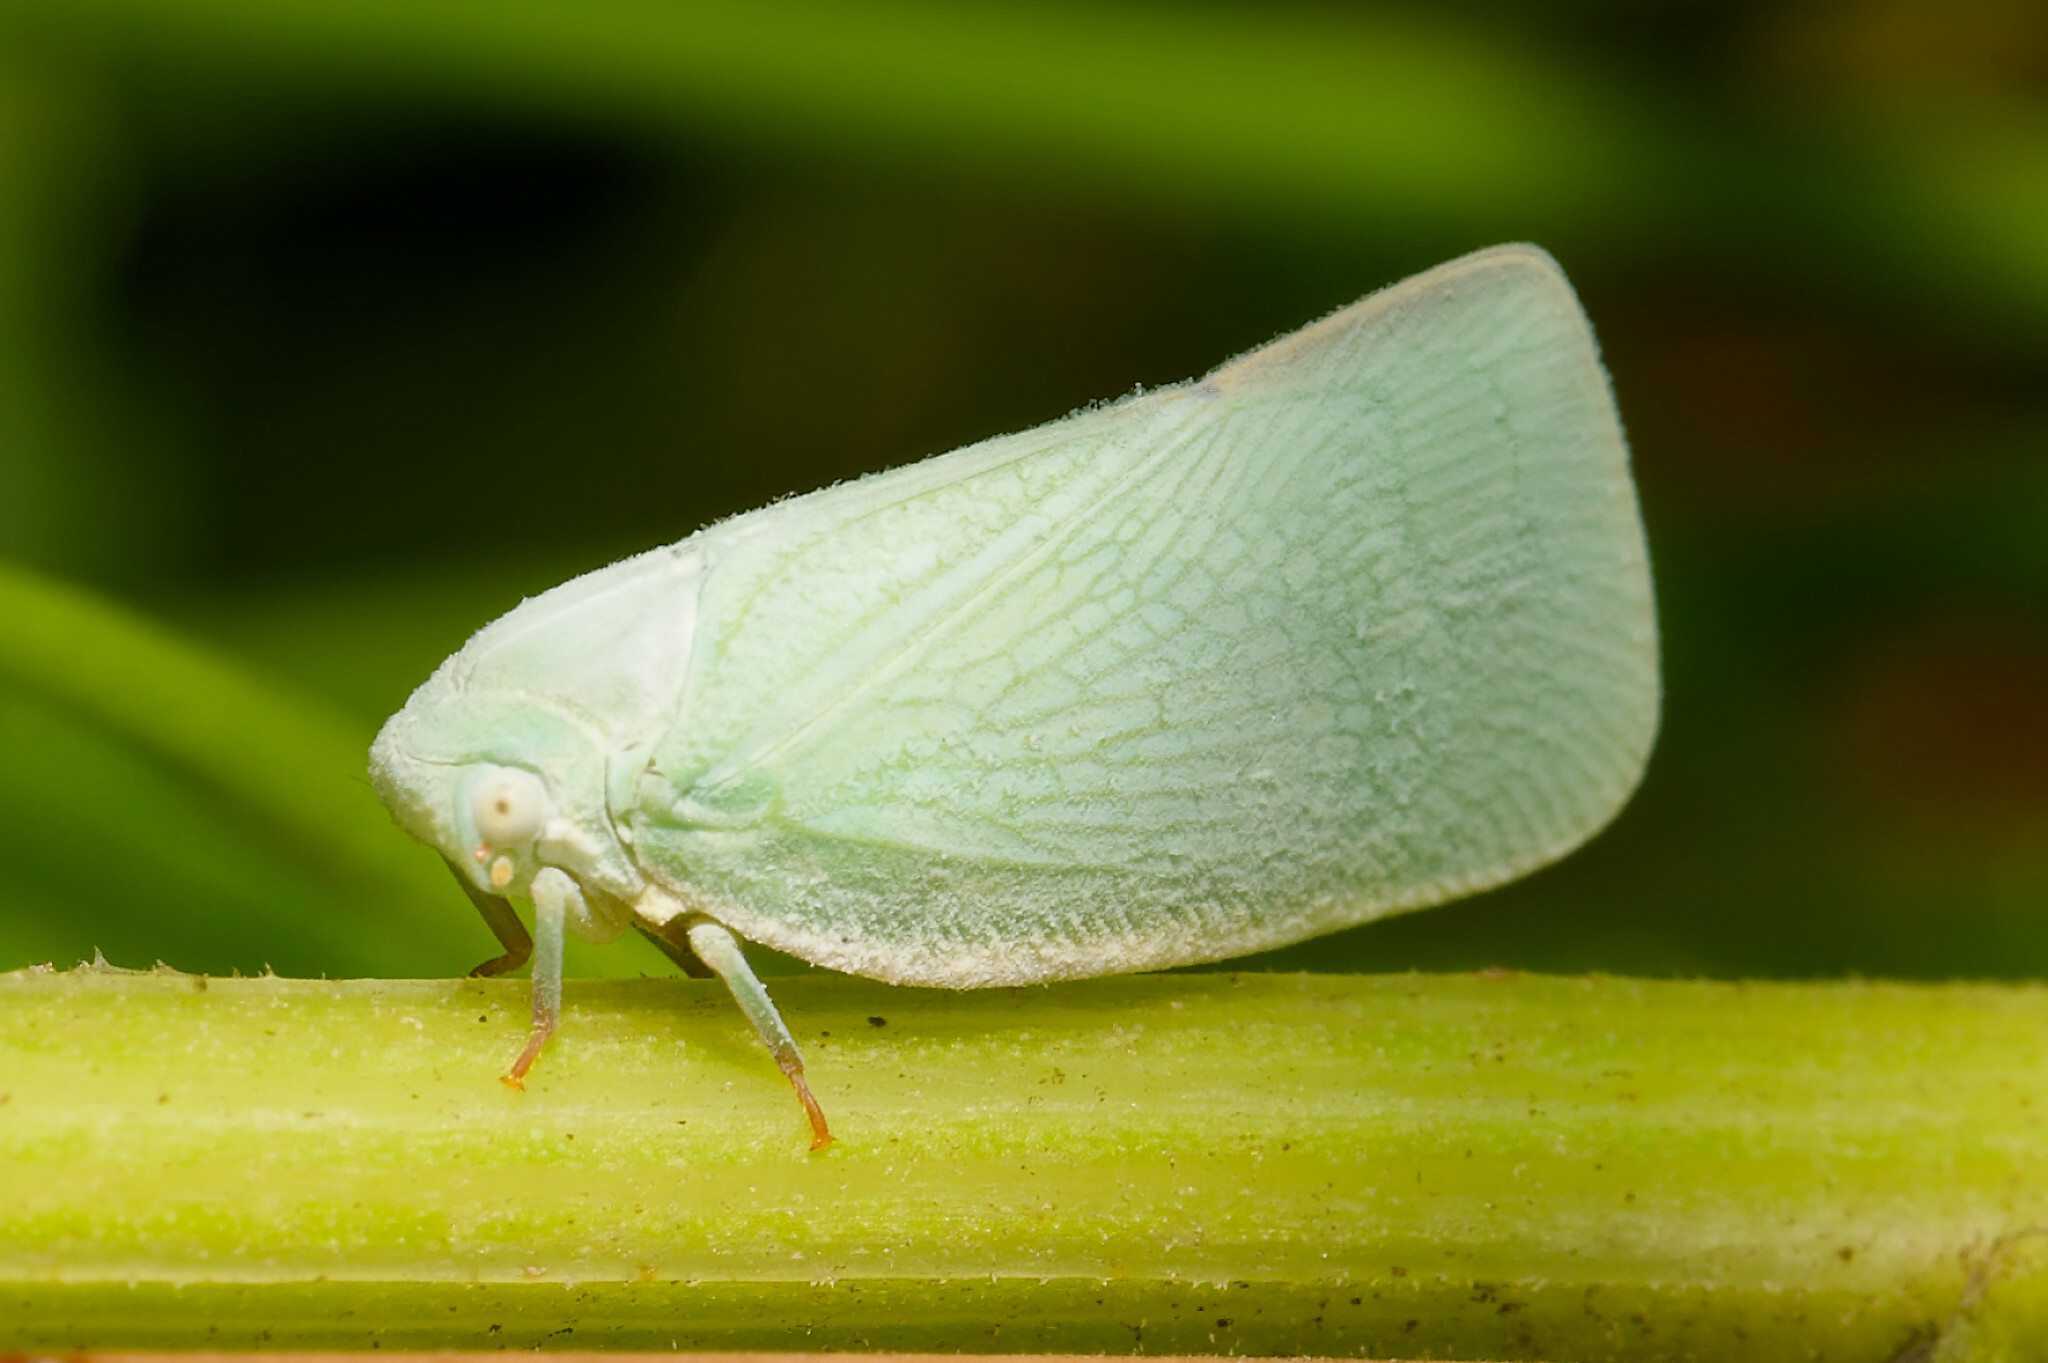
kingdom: Animalia
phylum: Arthropoda
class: Insecta
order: Hemiptera
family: Flatidae
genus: Flatormenis
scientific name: Flatormenis proxima
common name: Northern flatid planthopper
